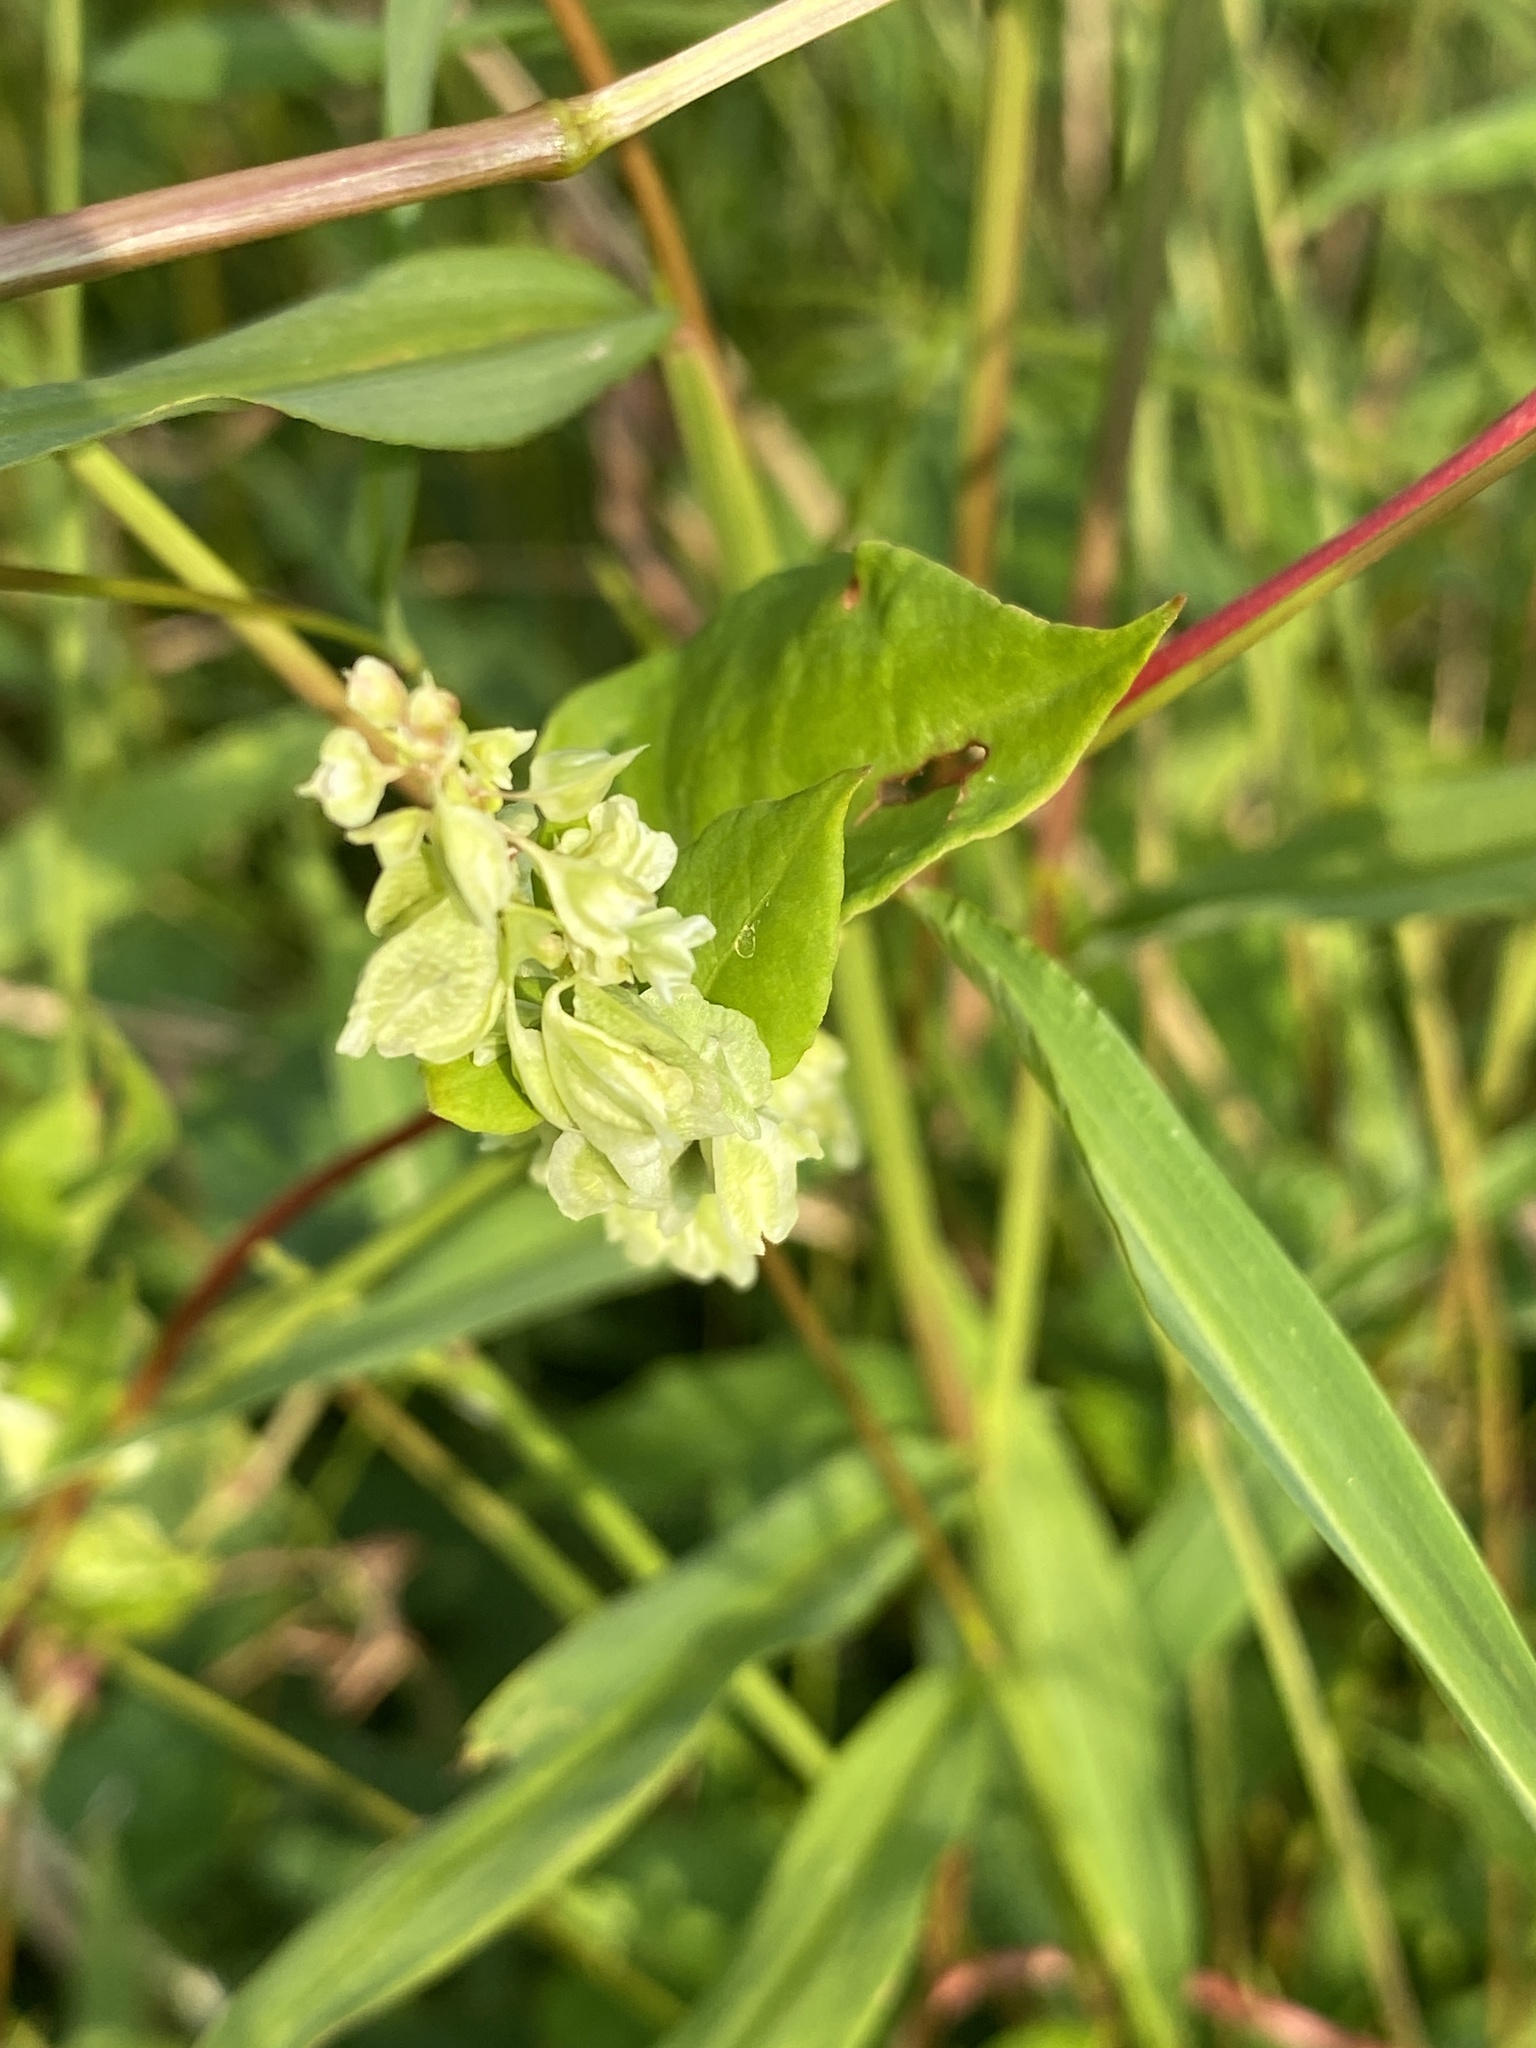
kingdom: Plantae
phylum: Tracheophyta
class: Magnoliopsida
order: Caryophyllales
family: Polygonaceae
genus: Fallopia
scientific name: Fallopia scandens
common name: Climbing false buckwheat
